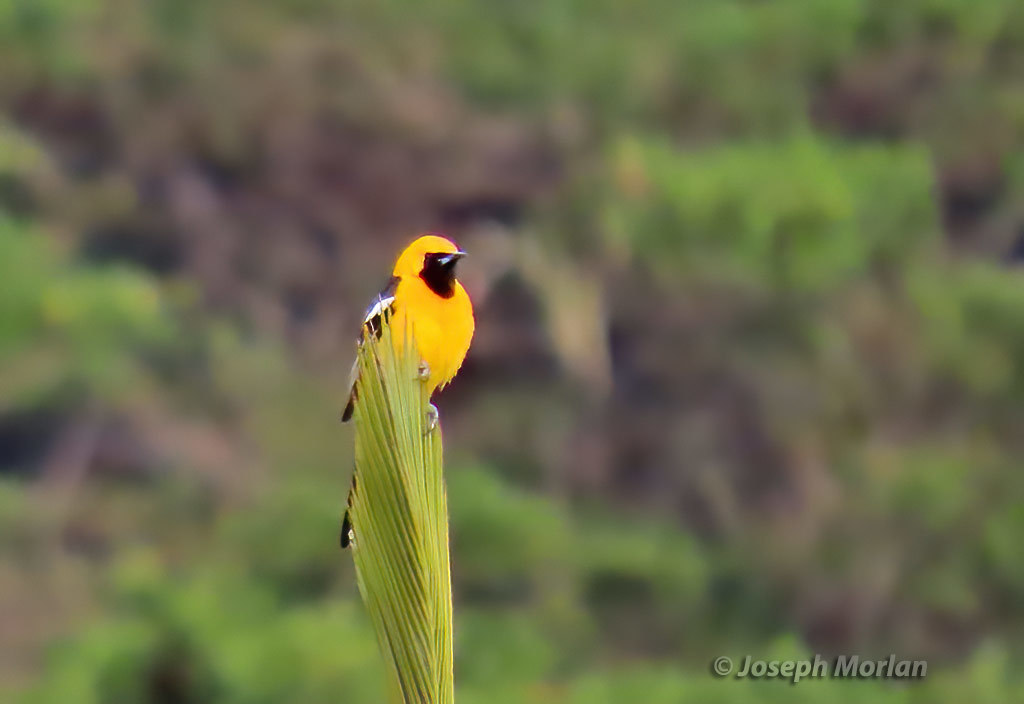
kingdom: Animalia
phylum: Chordata
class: Aves
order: Passeriformes
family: Icteridae
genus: Icterus
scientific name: Icterus cucullatus
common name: Hooded oriole
